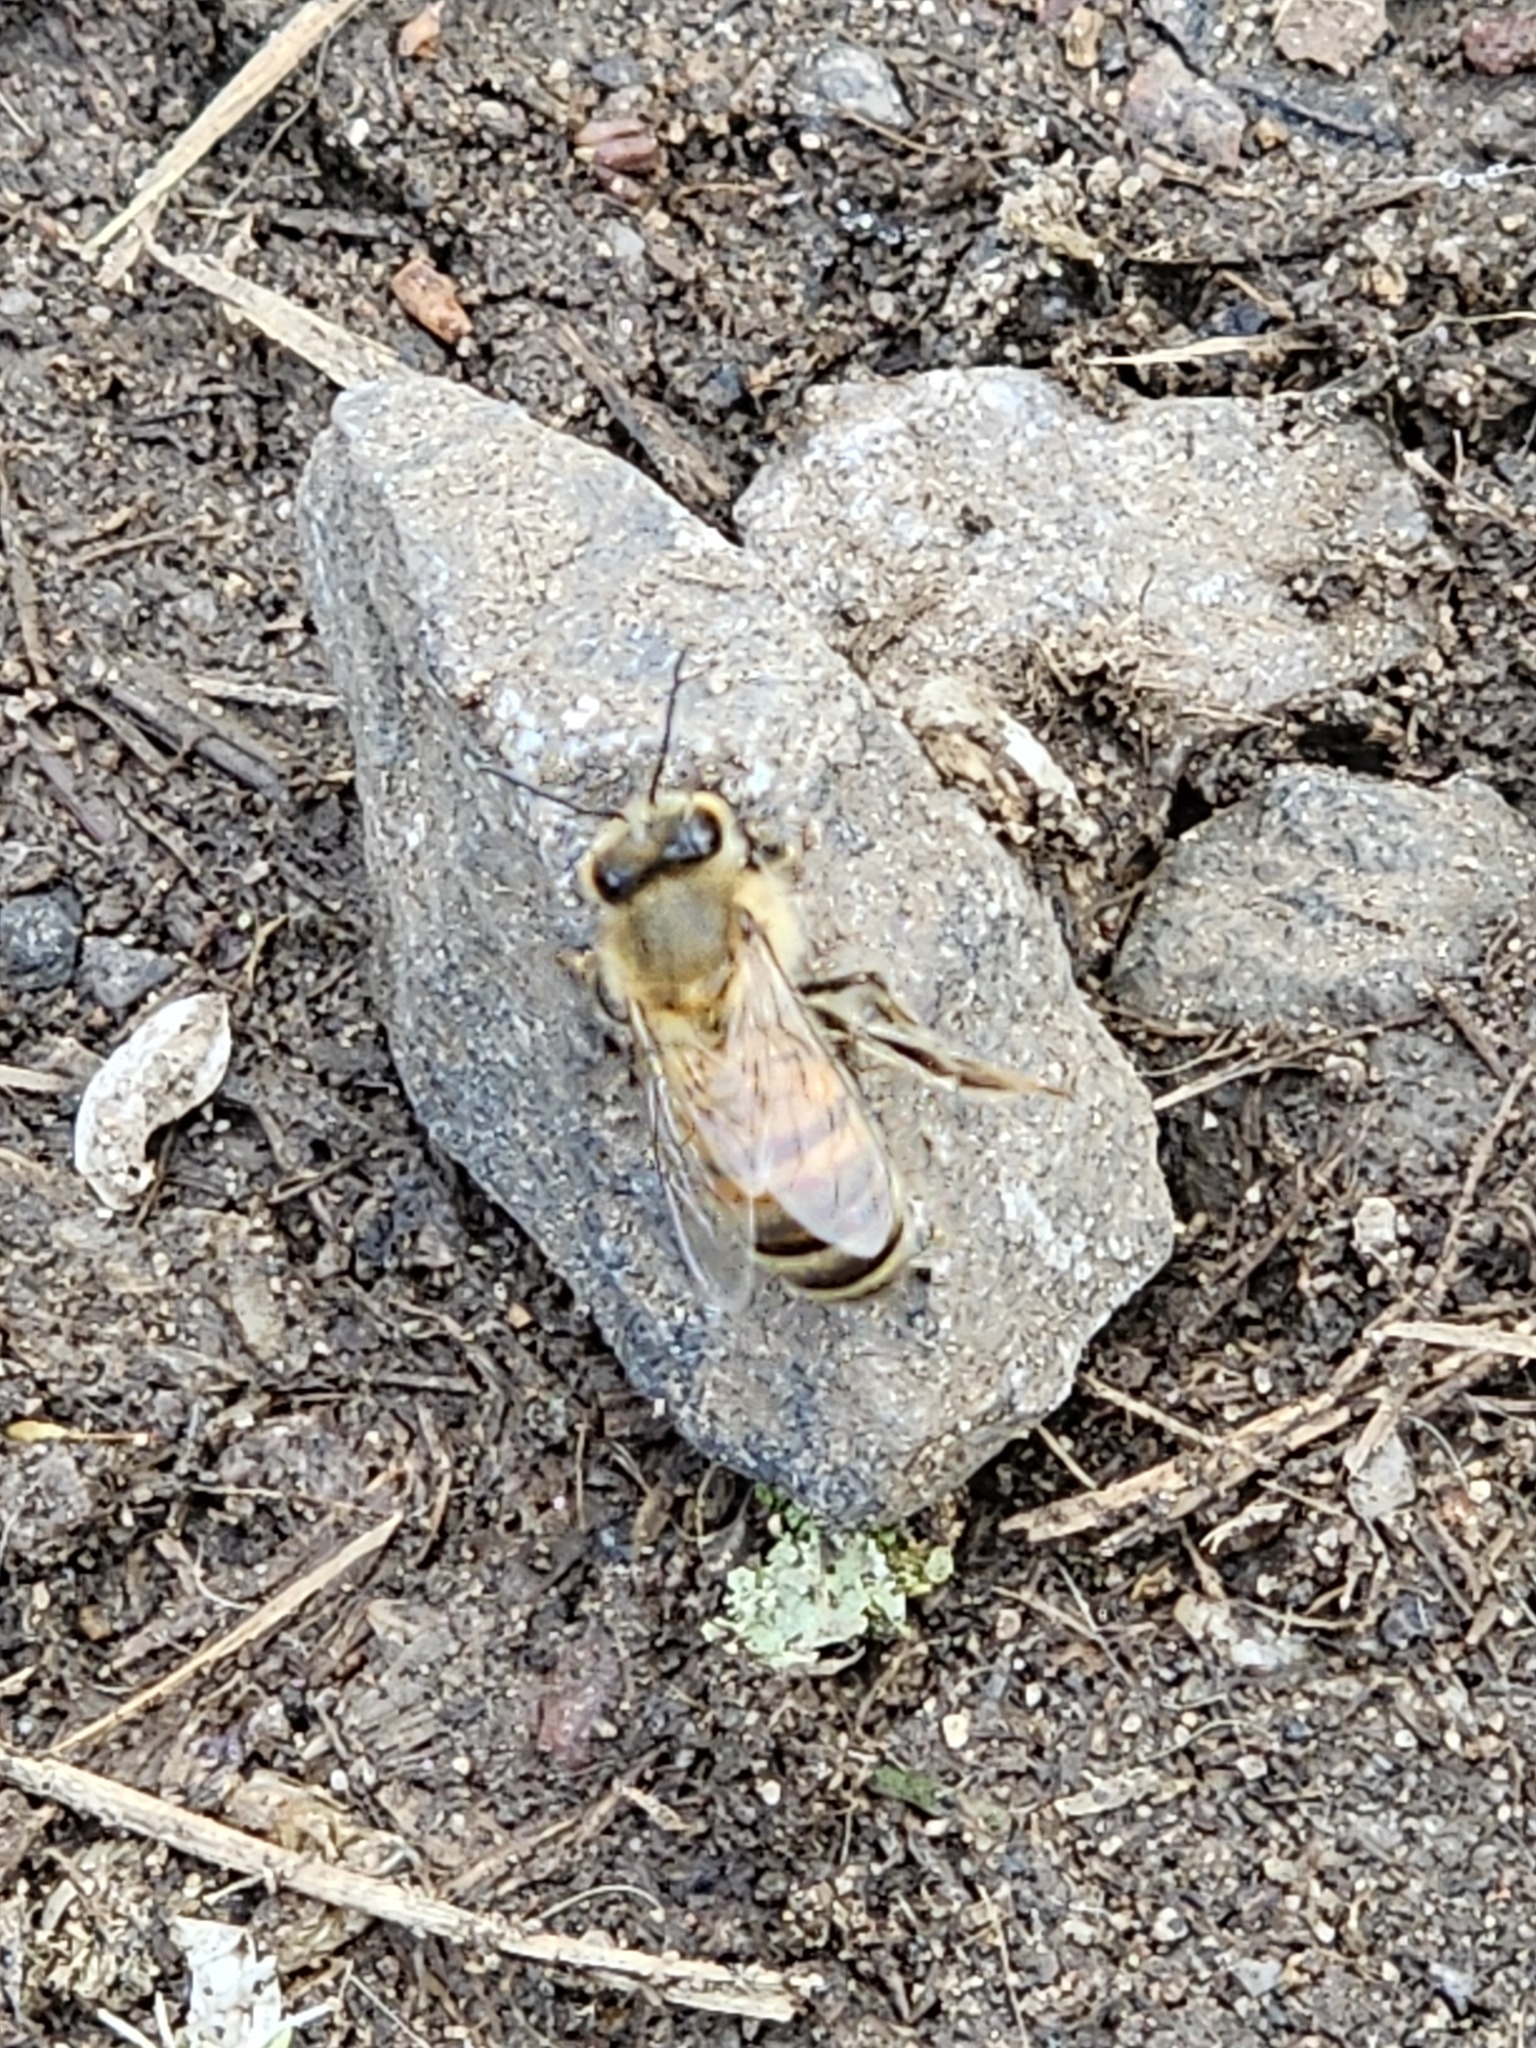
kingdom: Animalia
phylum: Arthropoda
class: Insecta
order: Hymenoptera
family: Apidae
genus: Apis
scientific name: Apis mellifera
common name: Honey bee
